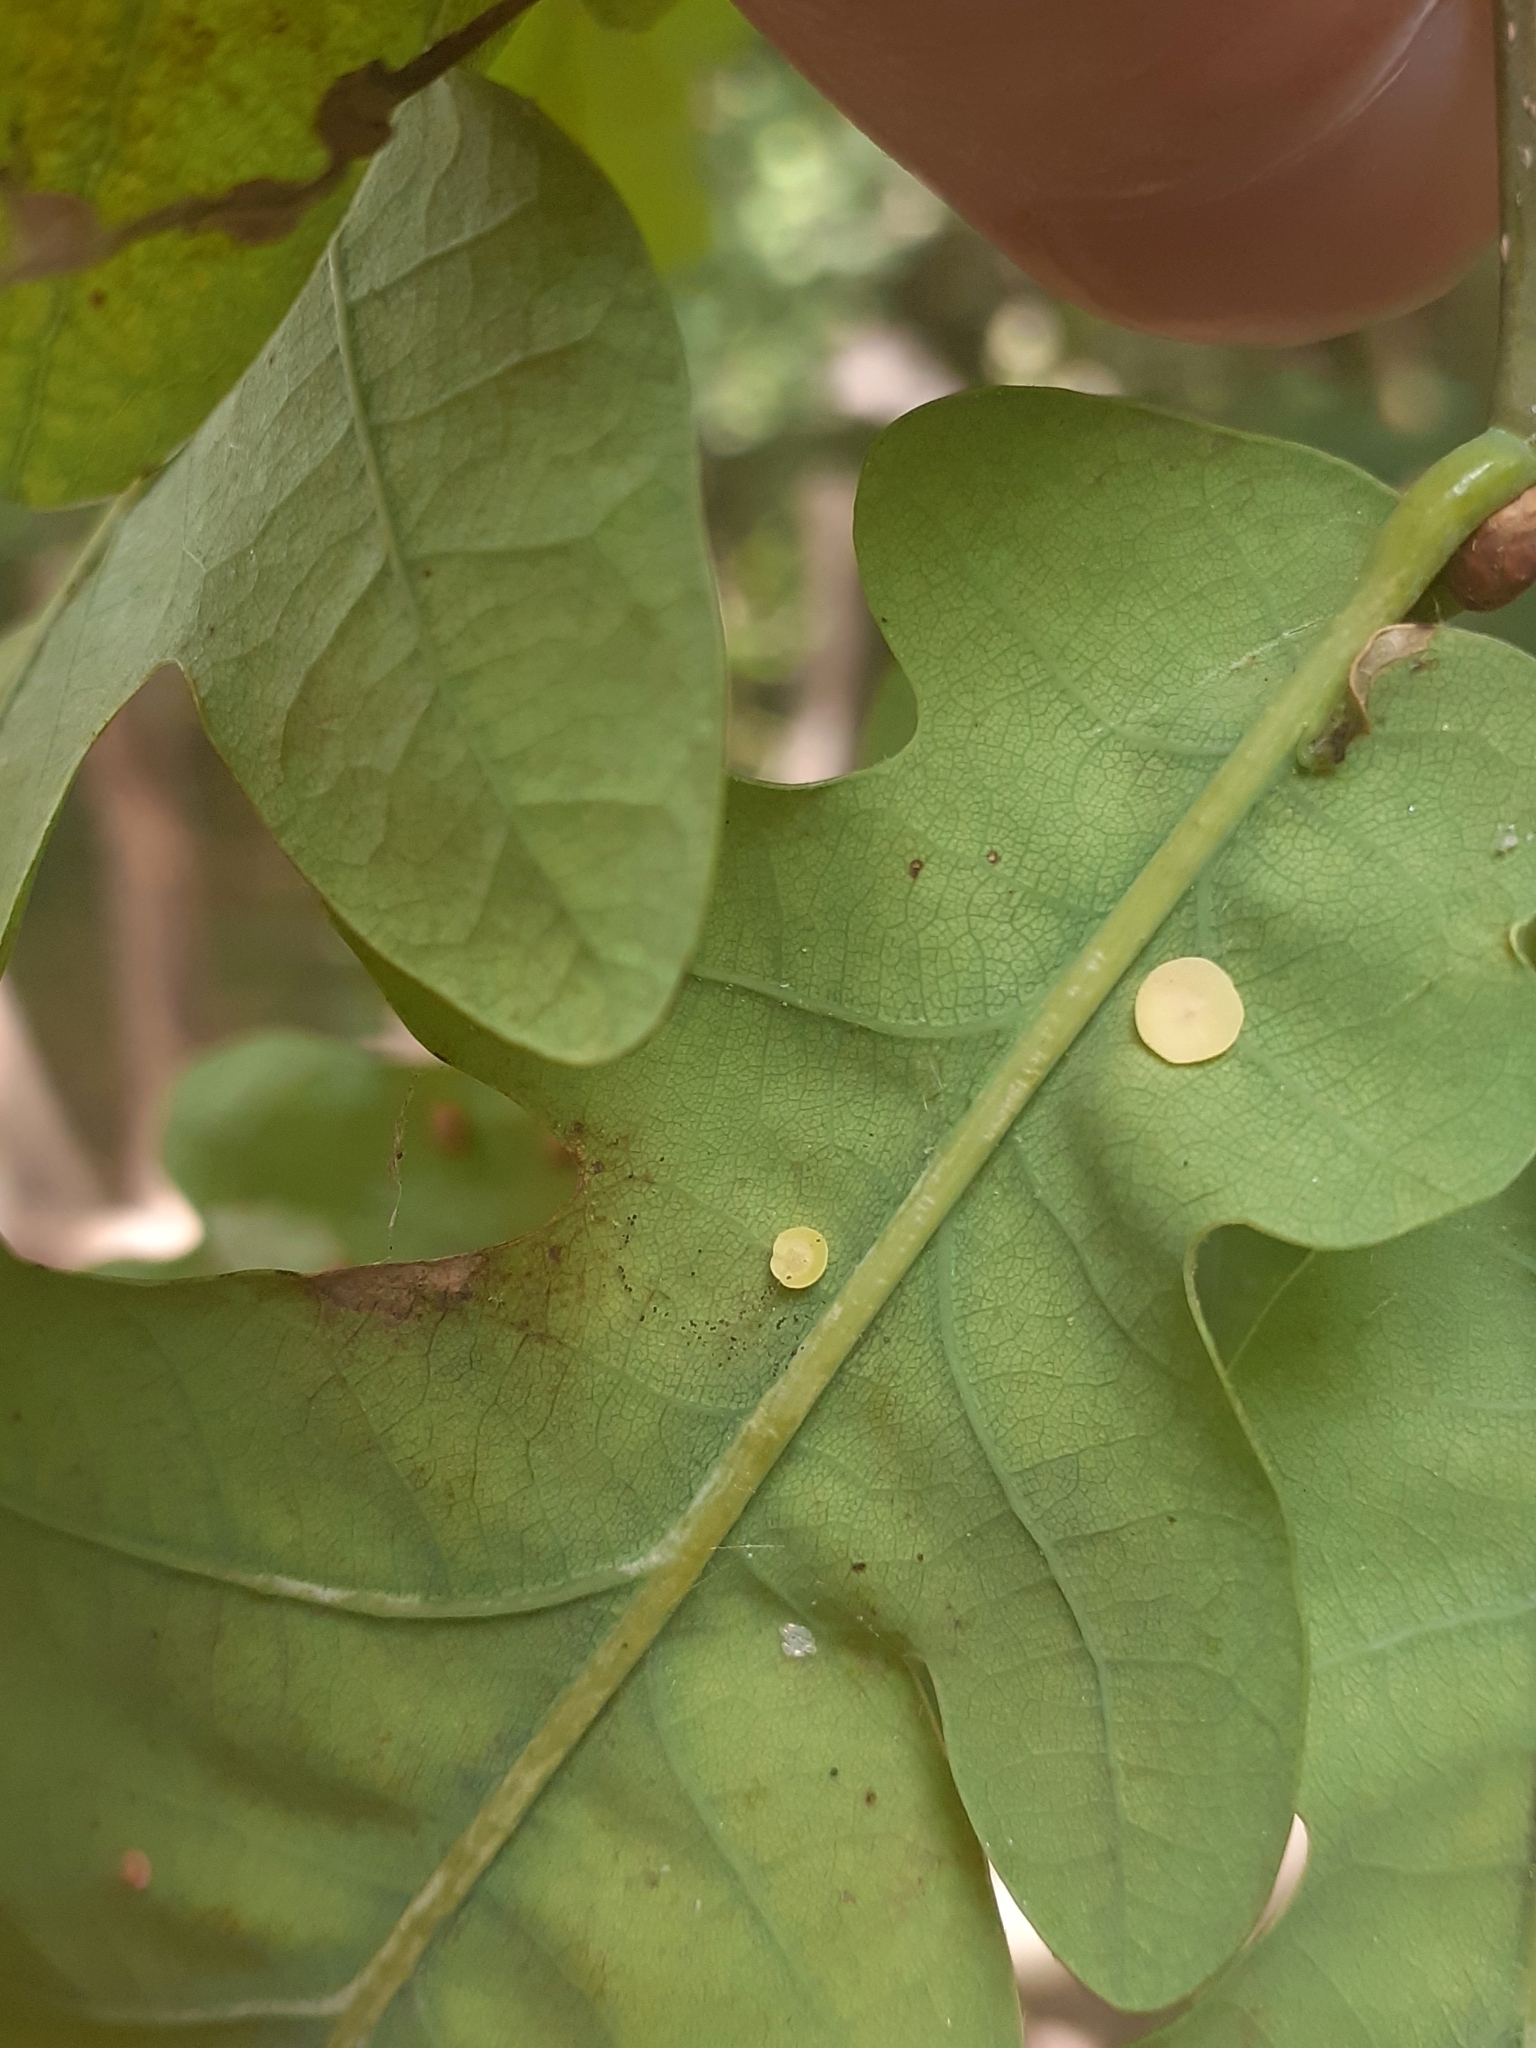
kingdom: Animalia
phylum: Arthropoda
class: Insecta
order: Hymenoptera
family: Cynipidae
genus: Neuroterus
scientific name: Neuroterus albipes
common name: Smooth spangle gall
